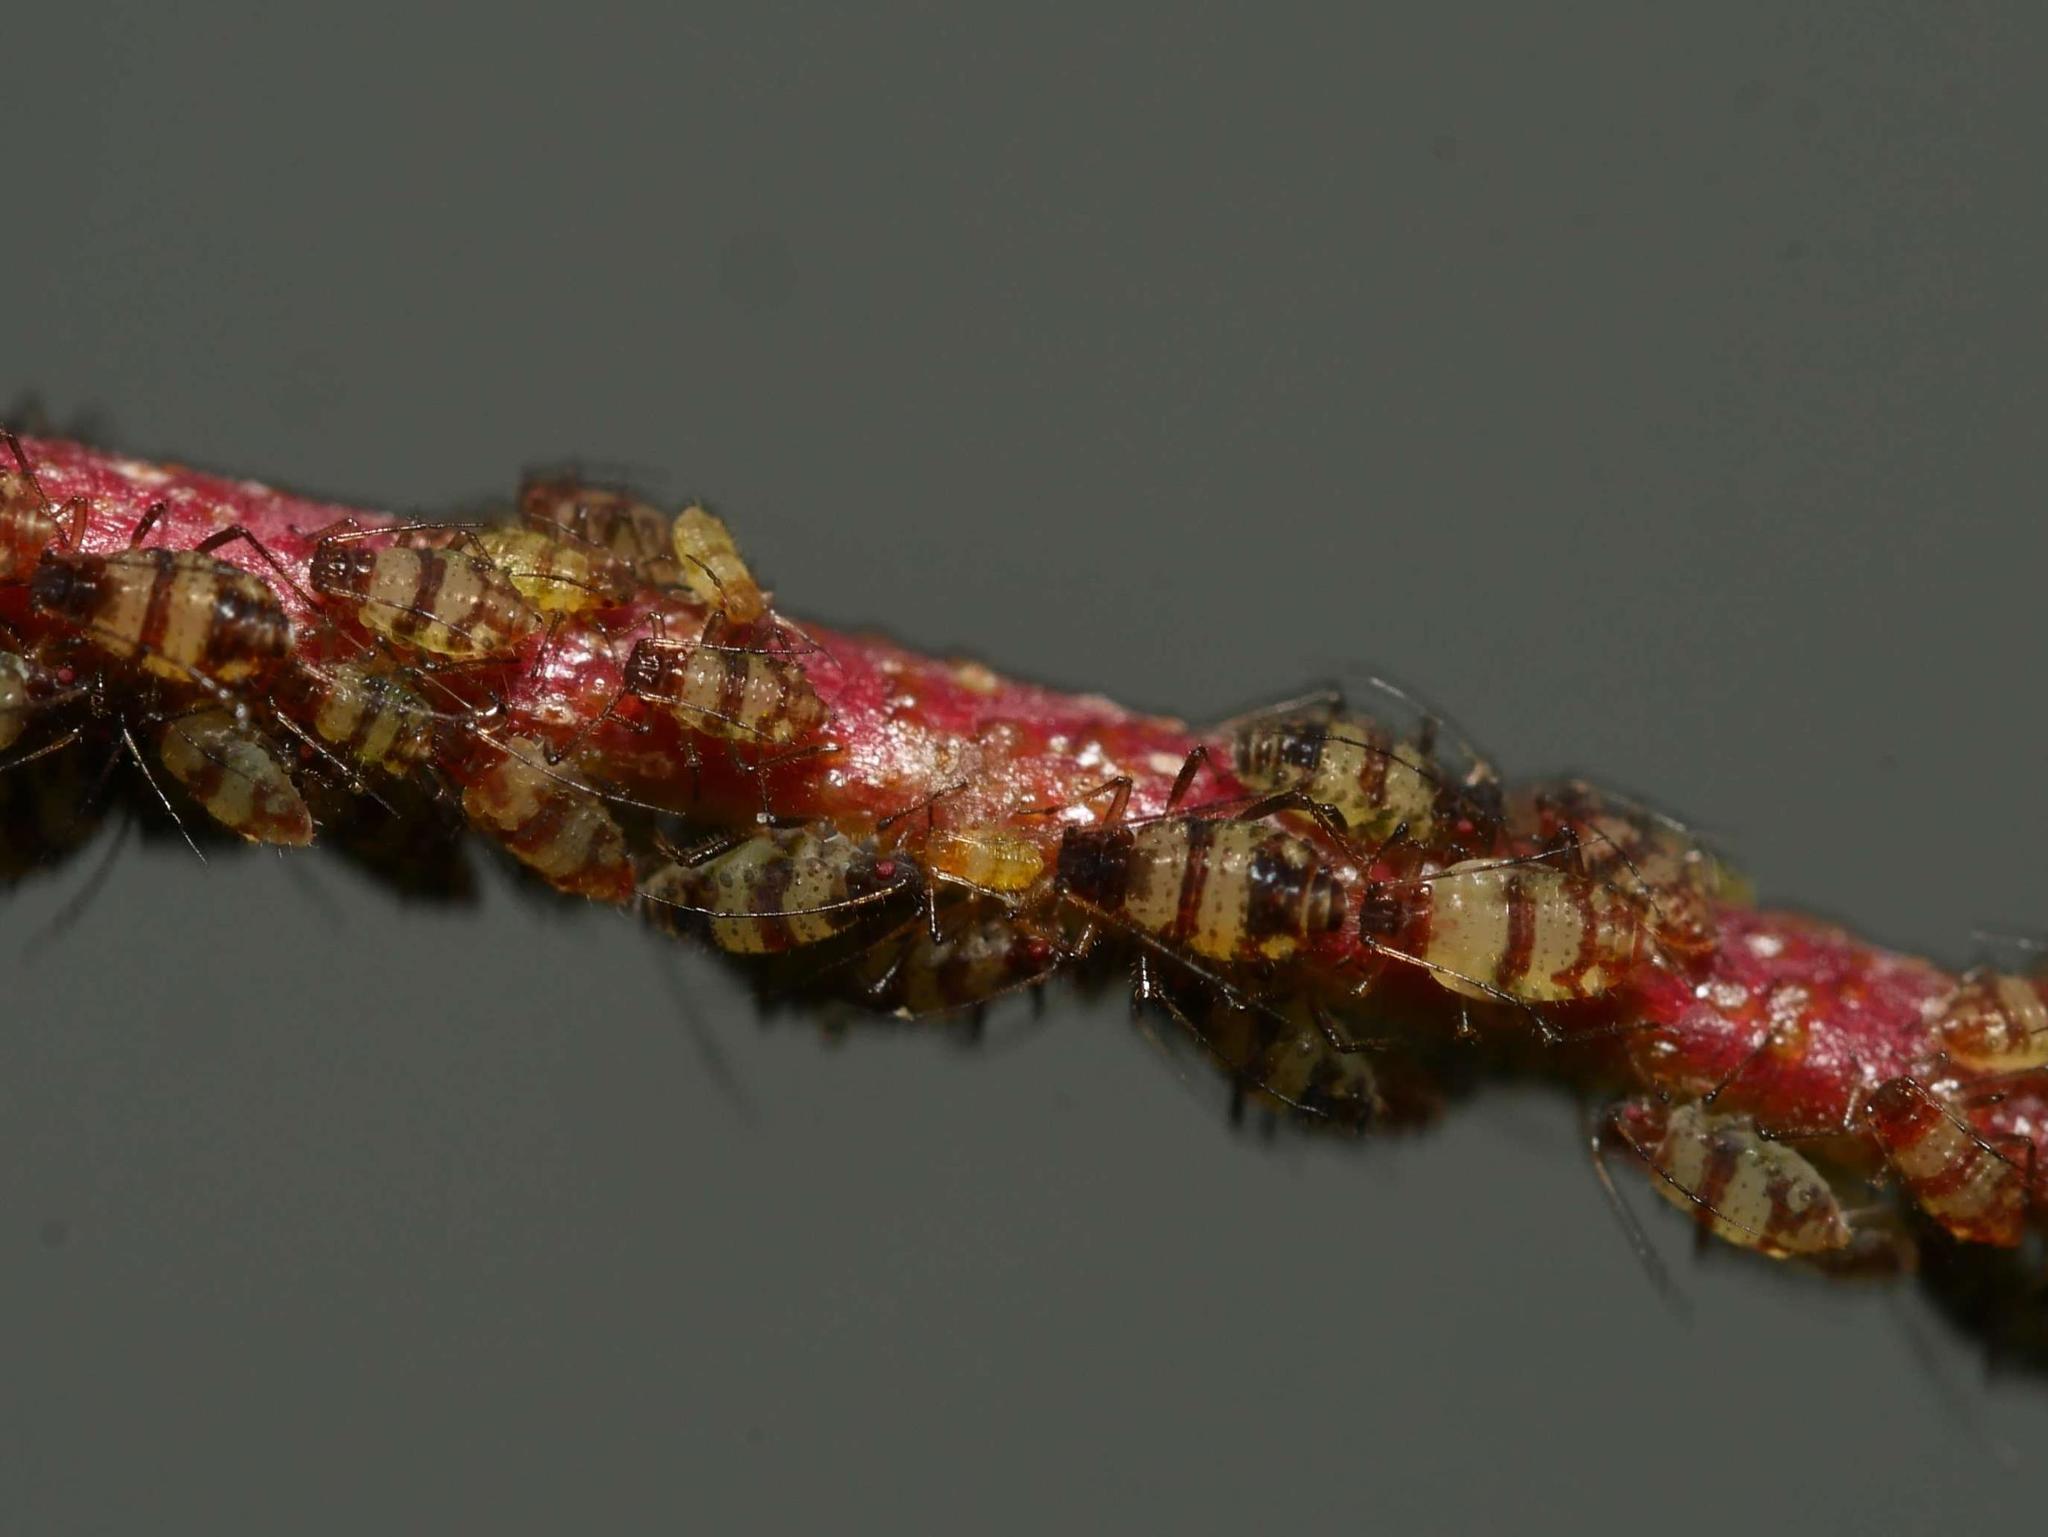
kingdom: Animalia
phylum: Arthropoda
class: Insecta
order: Hemiptera
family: Aphididae
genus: Callipterinella
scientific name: Callipterinella tuberculata
